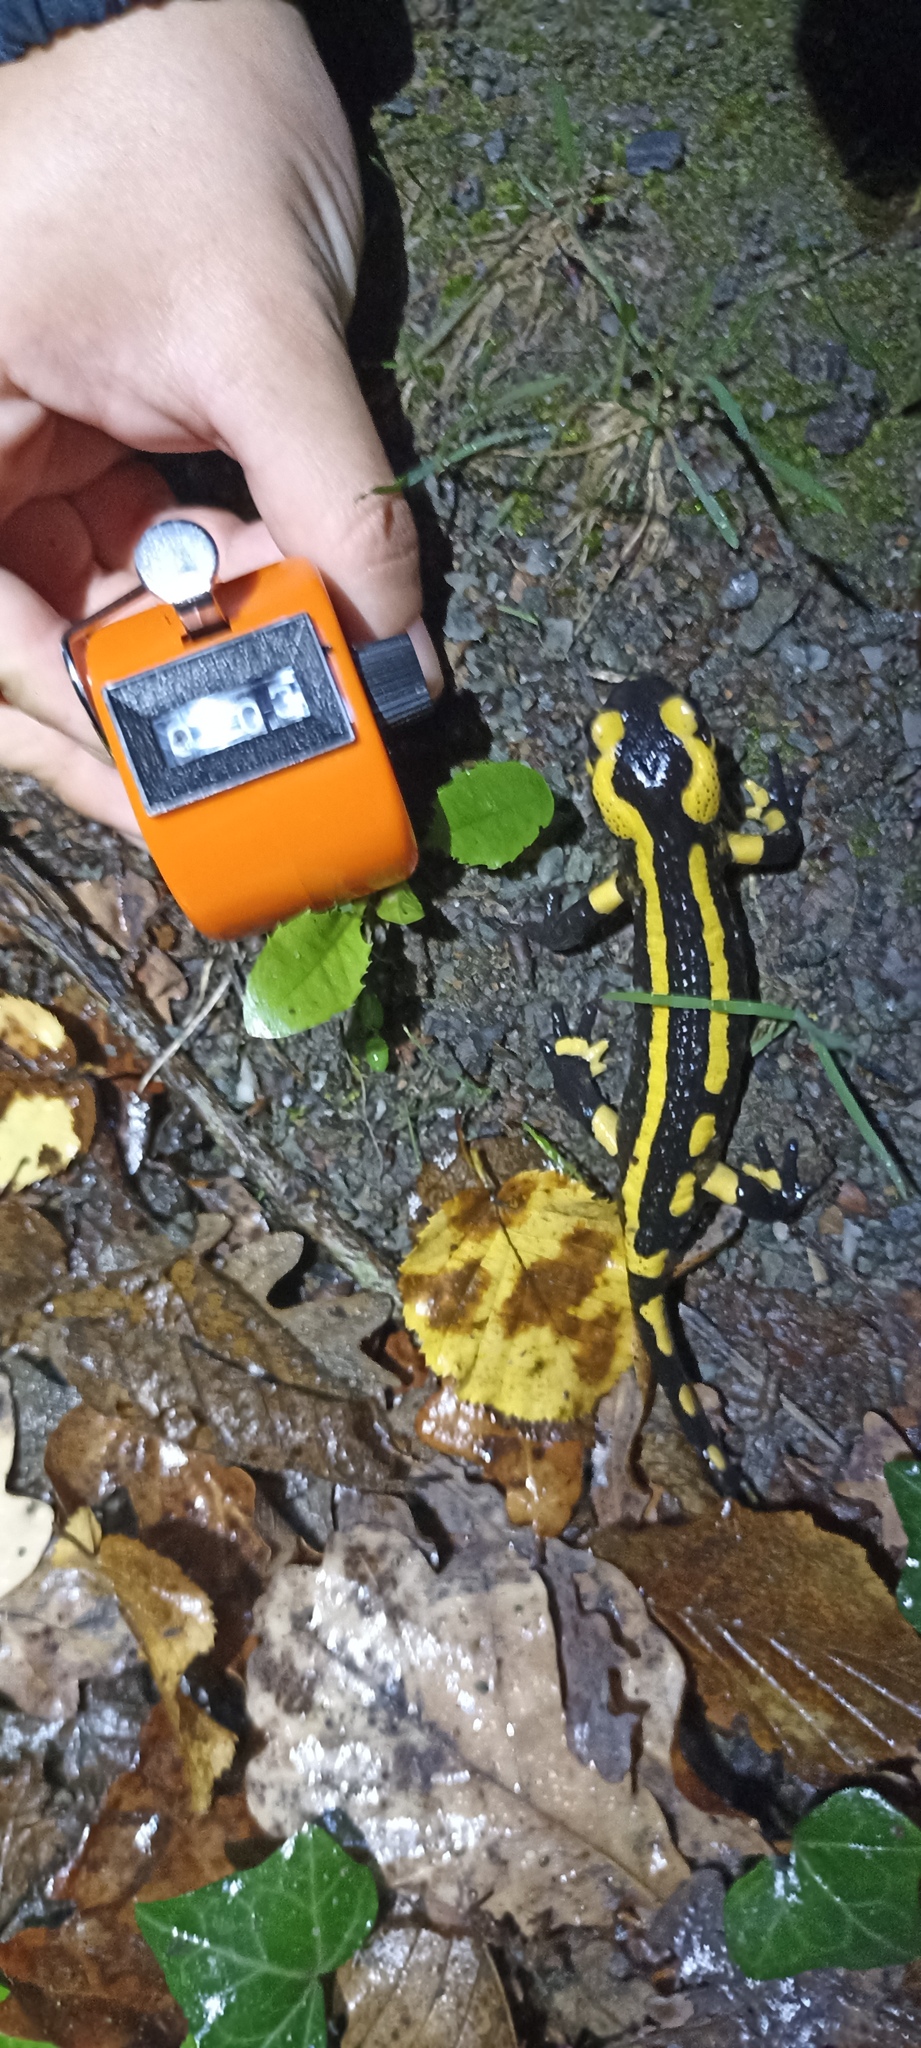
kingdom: Animalia
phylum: Chordata
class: Amphibia
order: Caudata
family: Salamandridae
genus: Salamandra
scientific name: Salamandra salamandra
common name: Fire salamander
